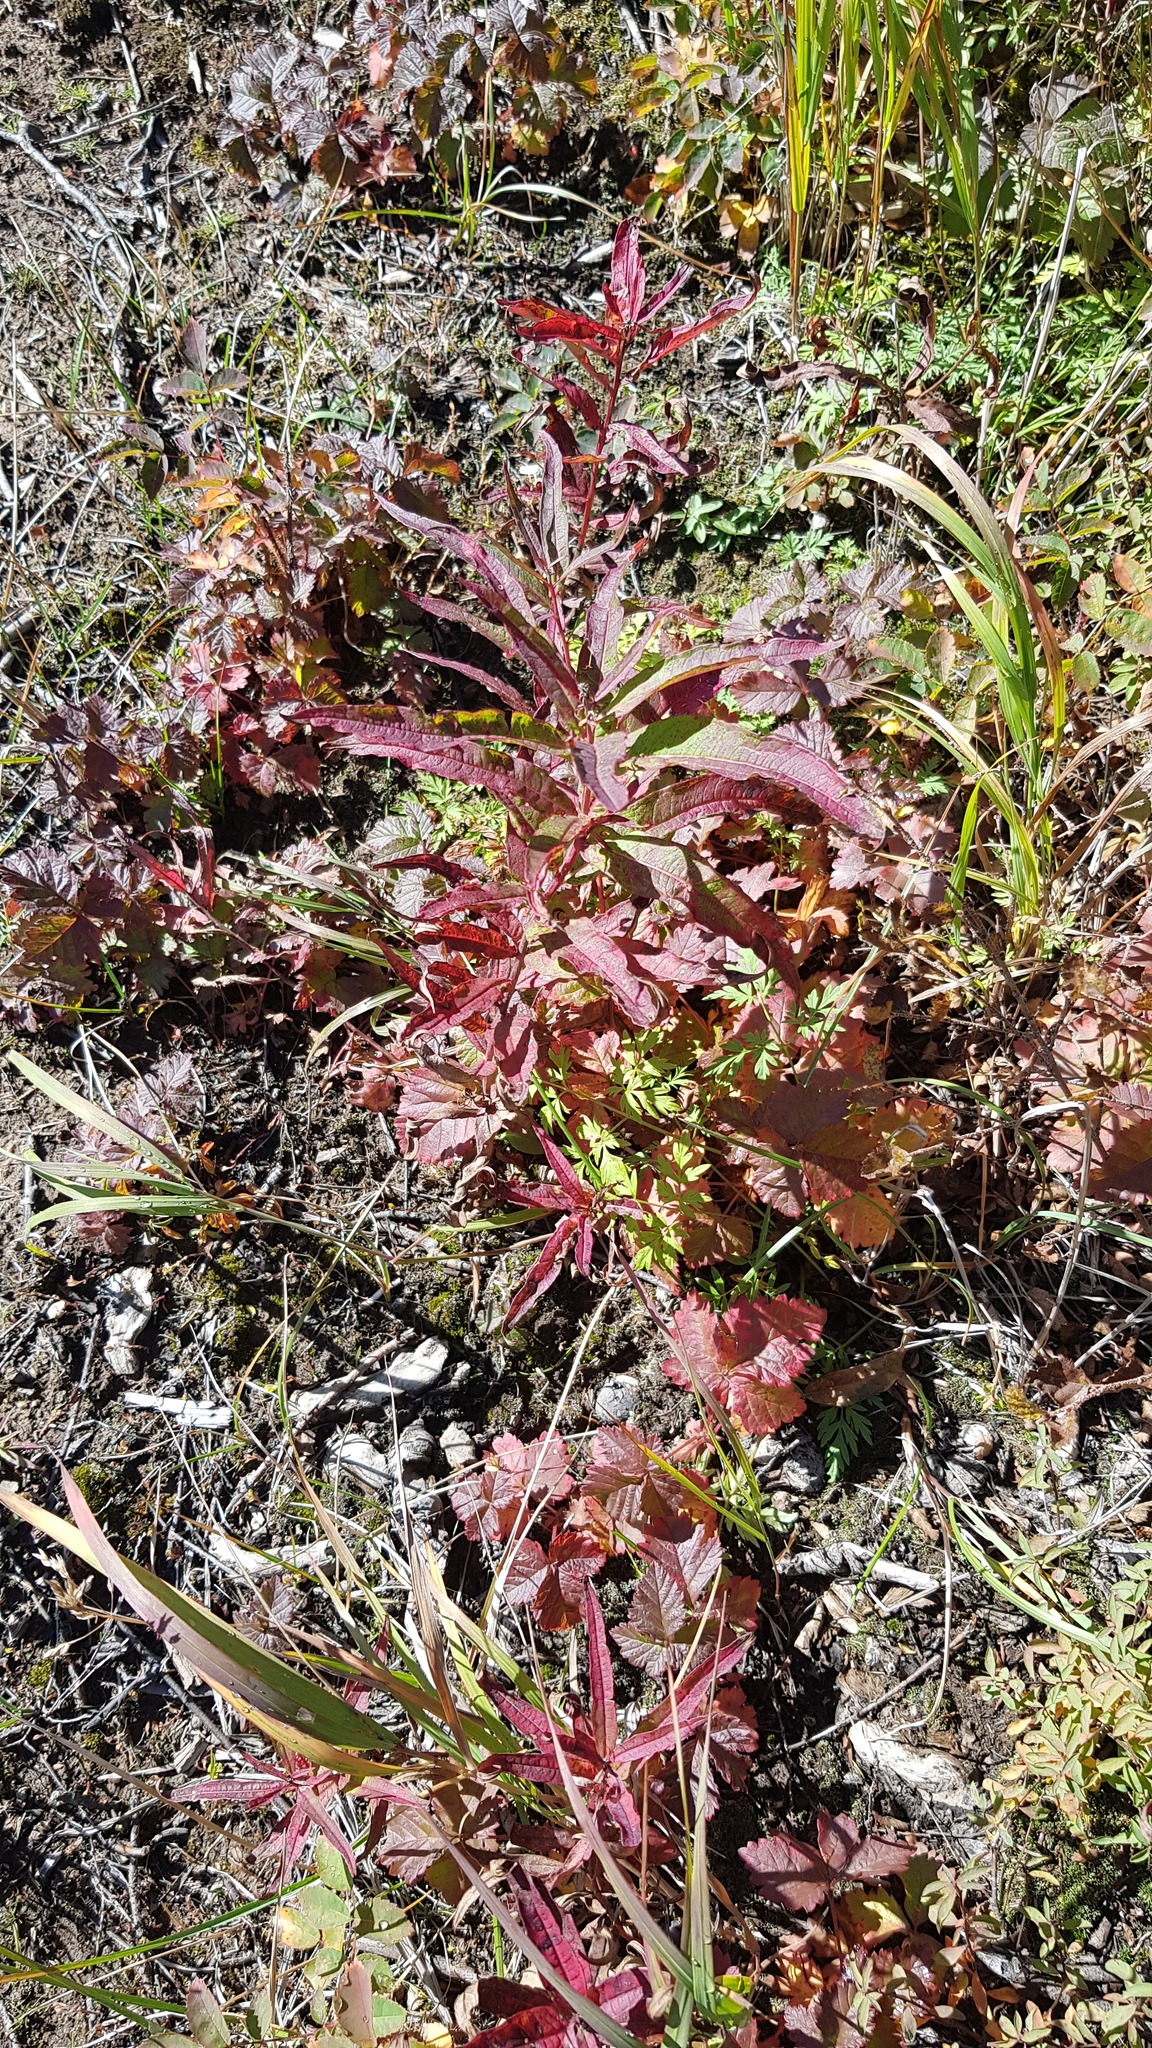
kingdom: Plantae
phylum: Tracheophyta
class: Magnoliopsida
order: Myrtales
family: Onagraceae
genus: Chamaenerion
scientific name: Chamaenerion angustifolium
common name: Fireweed
